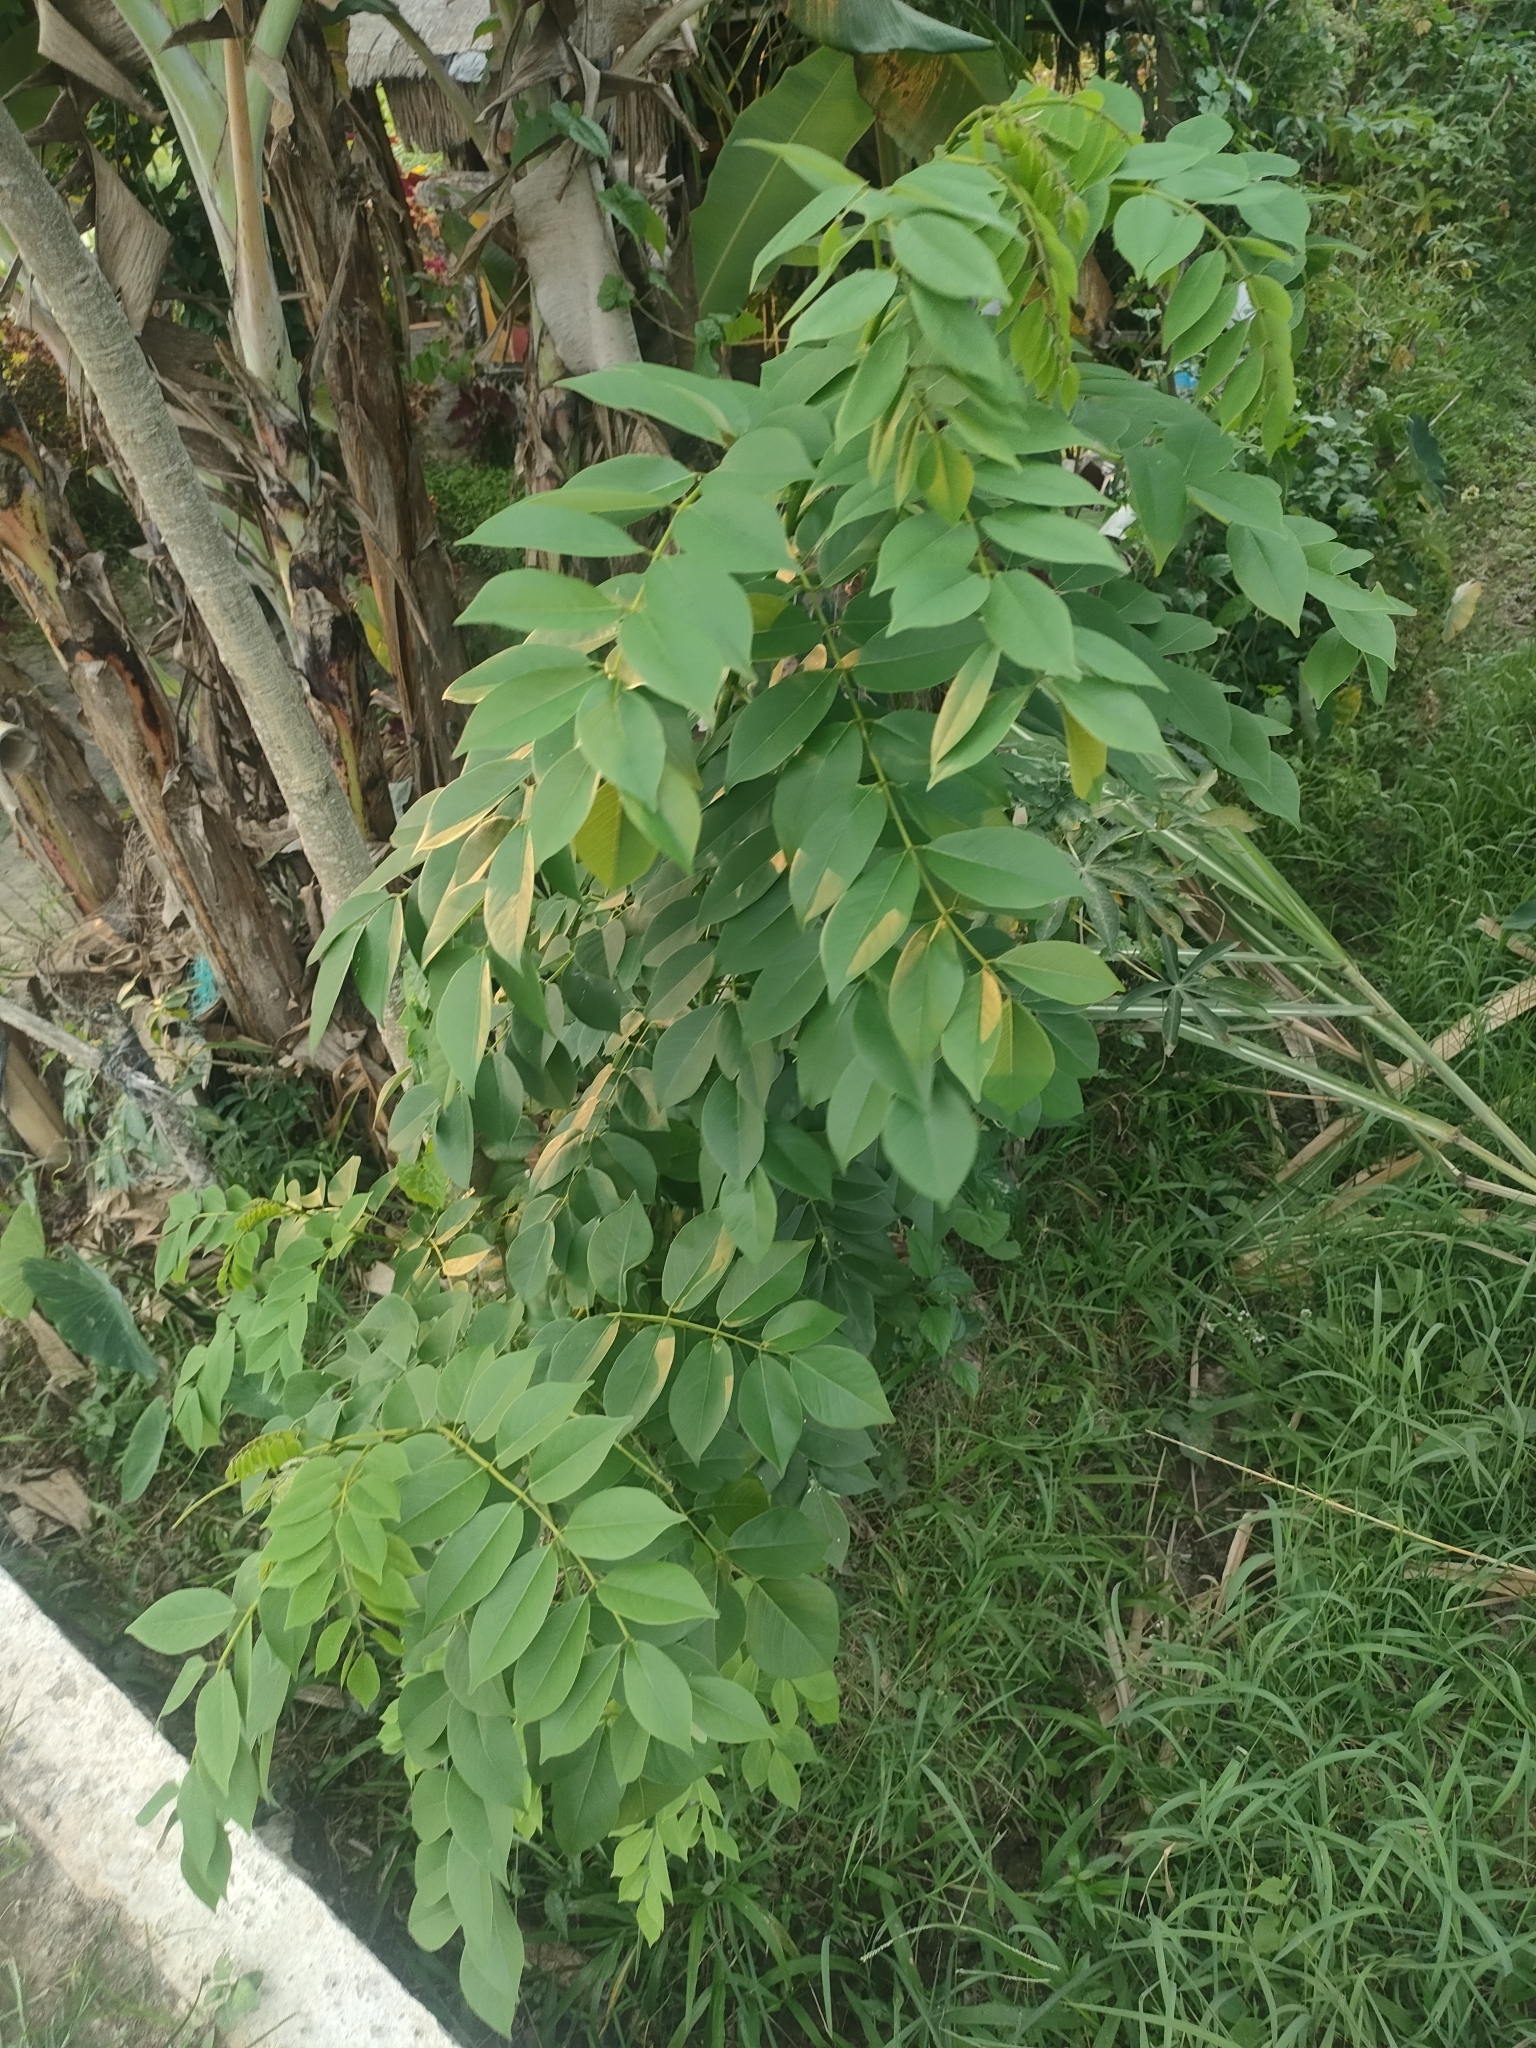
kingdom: Plantae
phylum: Tracheophyta
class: Magnoliopsida
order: Fabales
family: Fabaceae
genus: Gliricidia
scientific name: Gliricidia sepium
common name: Quickstick
